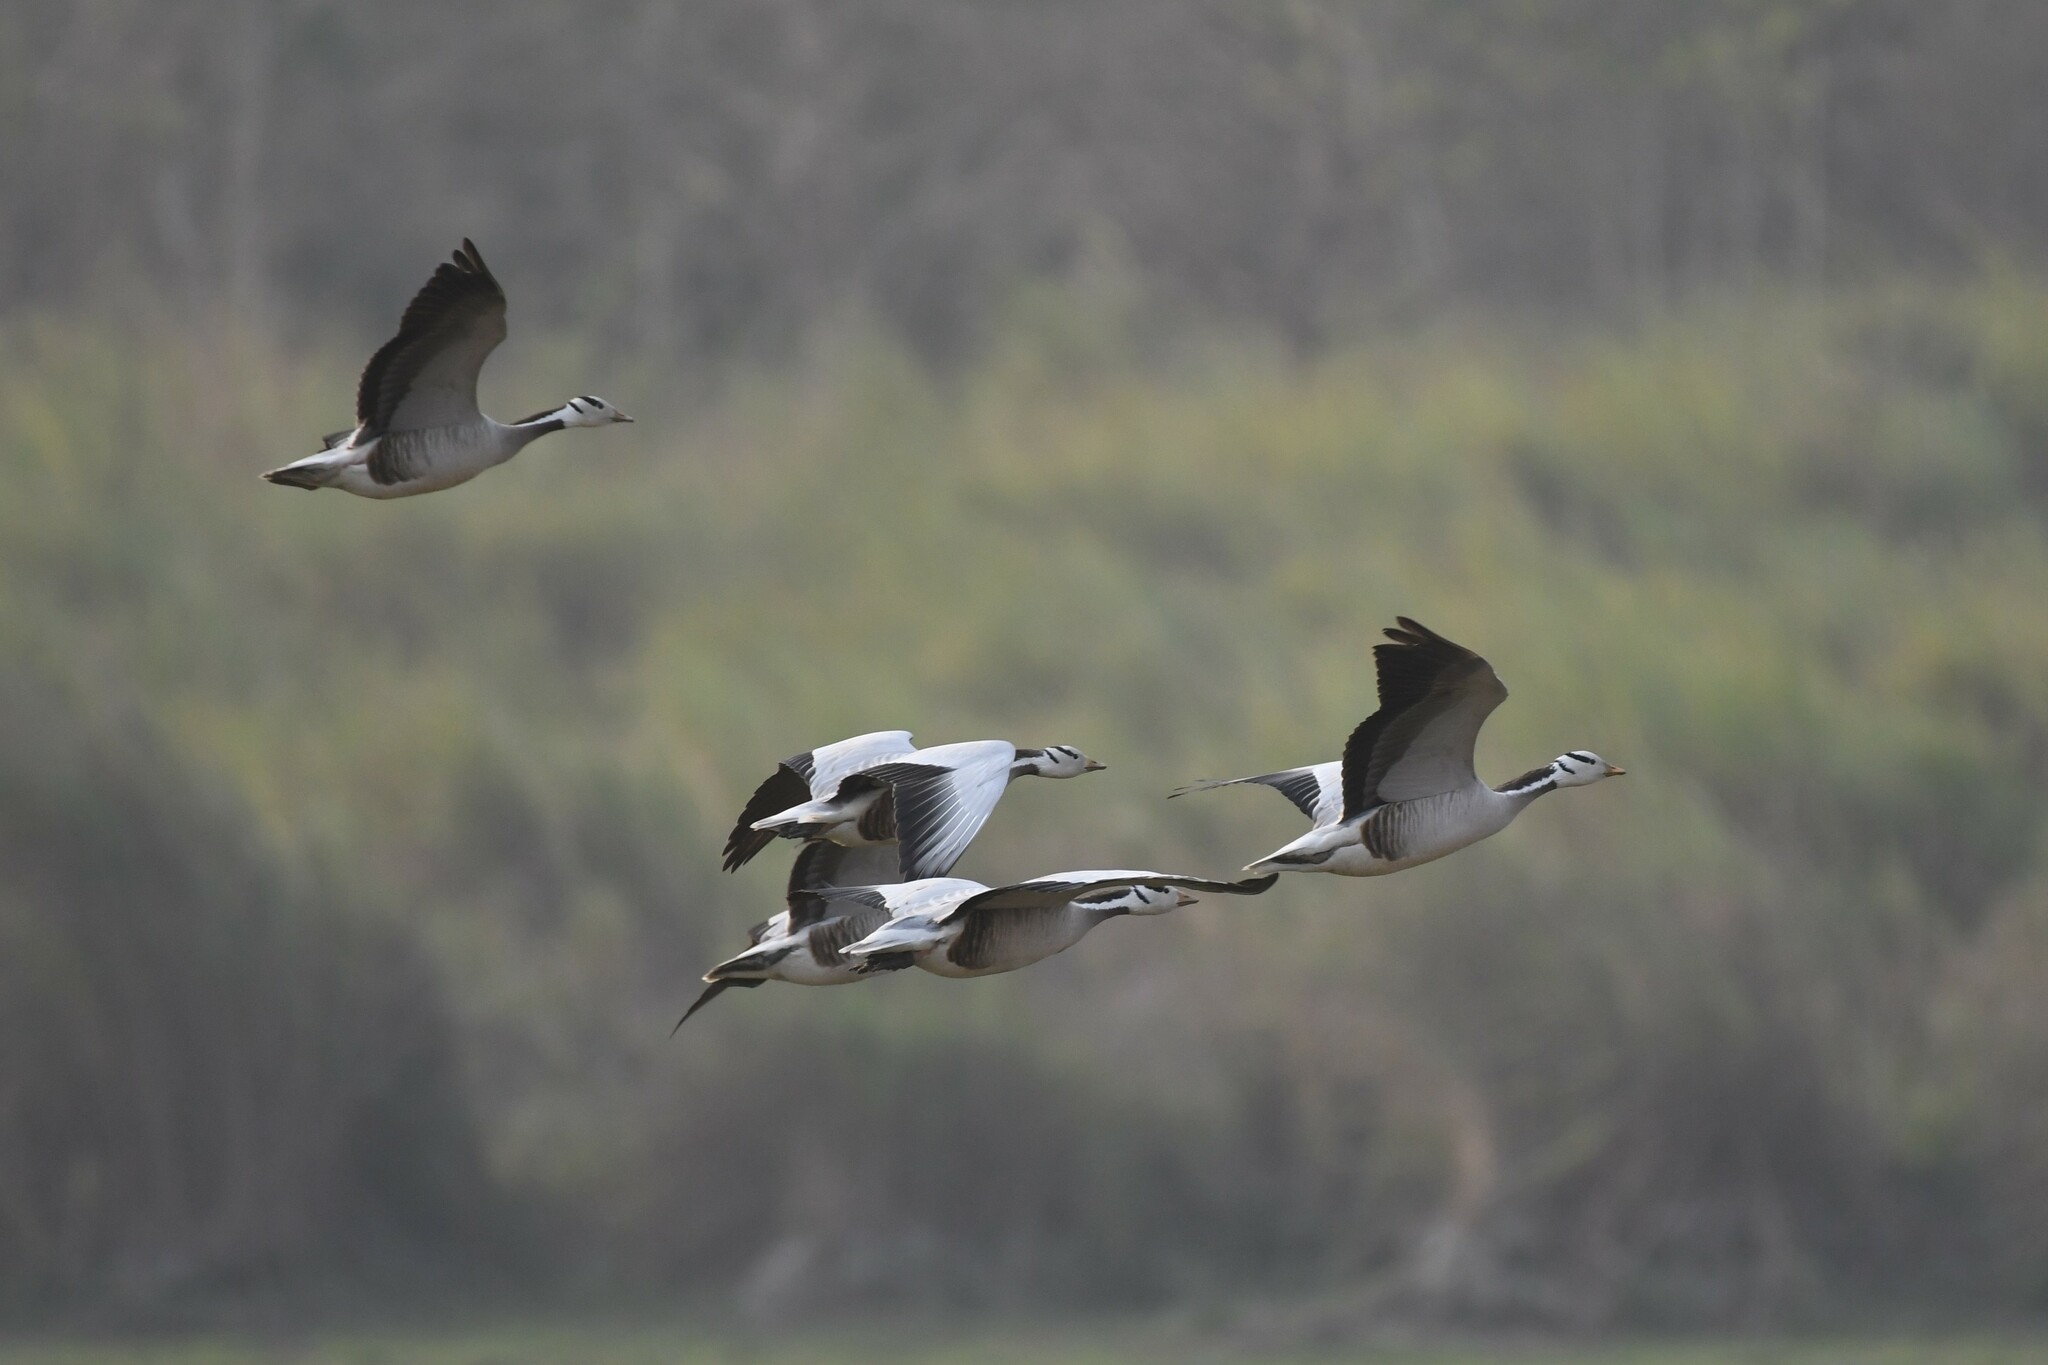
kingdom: Animalia
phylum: Chordata
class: Aves
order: Anseriformes
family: Anatidae
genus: Anser
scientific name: Anser indicus
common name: Bar-headed goose
